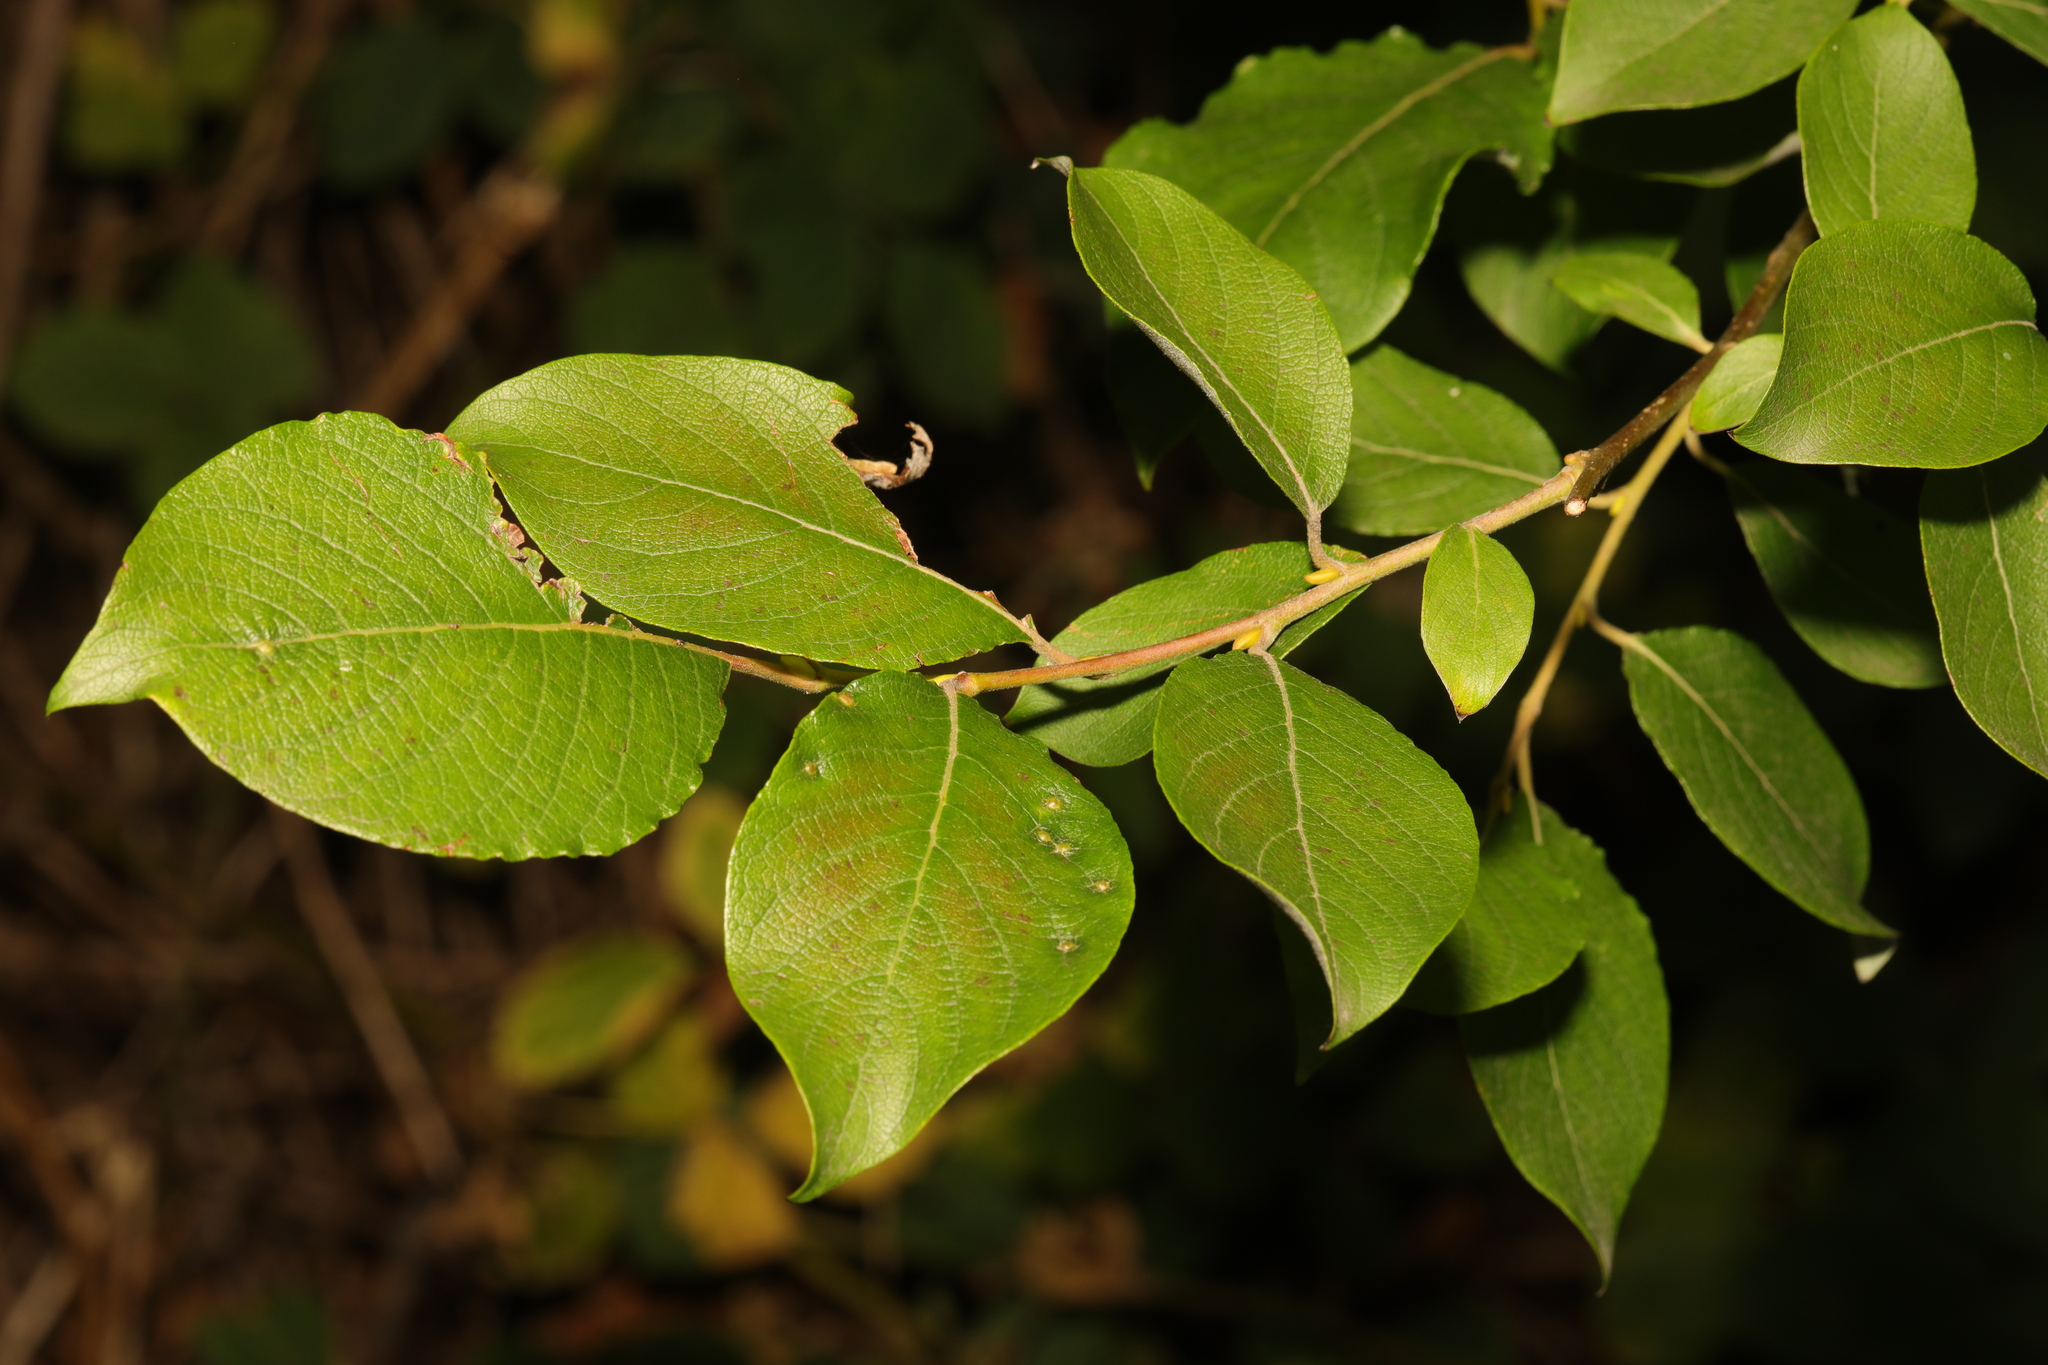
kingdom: Plantae
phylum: Tracheophyta
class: Magnoliopsida
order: Malpighiales
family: Salicaceae
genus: Salix
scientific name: Salix caprea
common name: Goat willow
